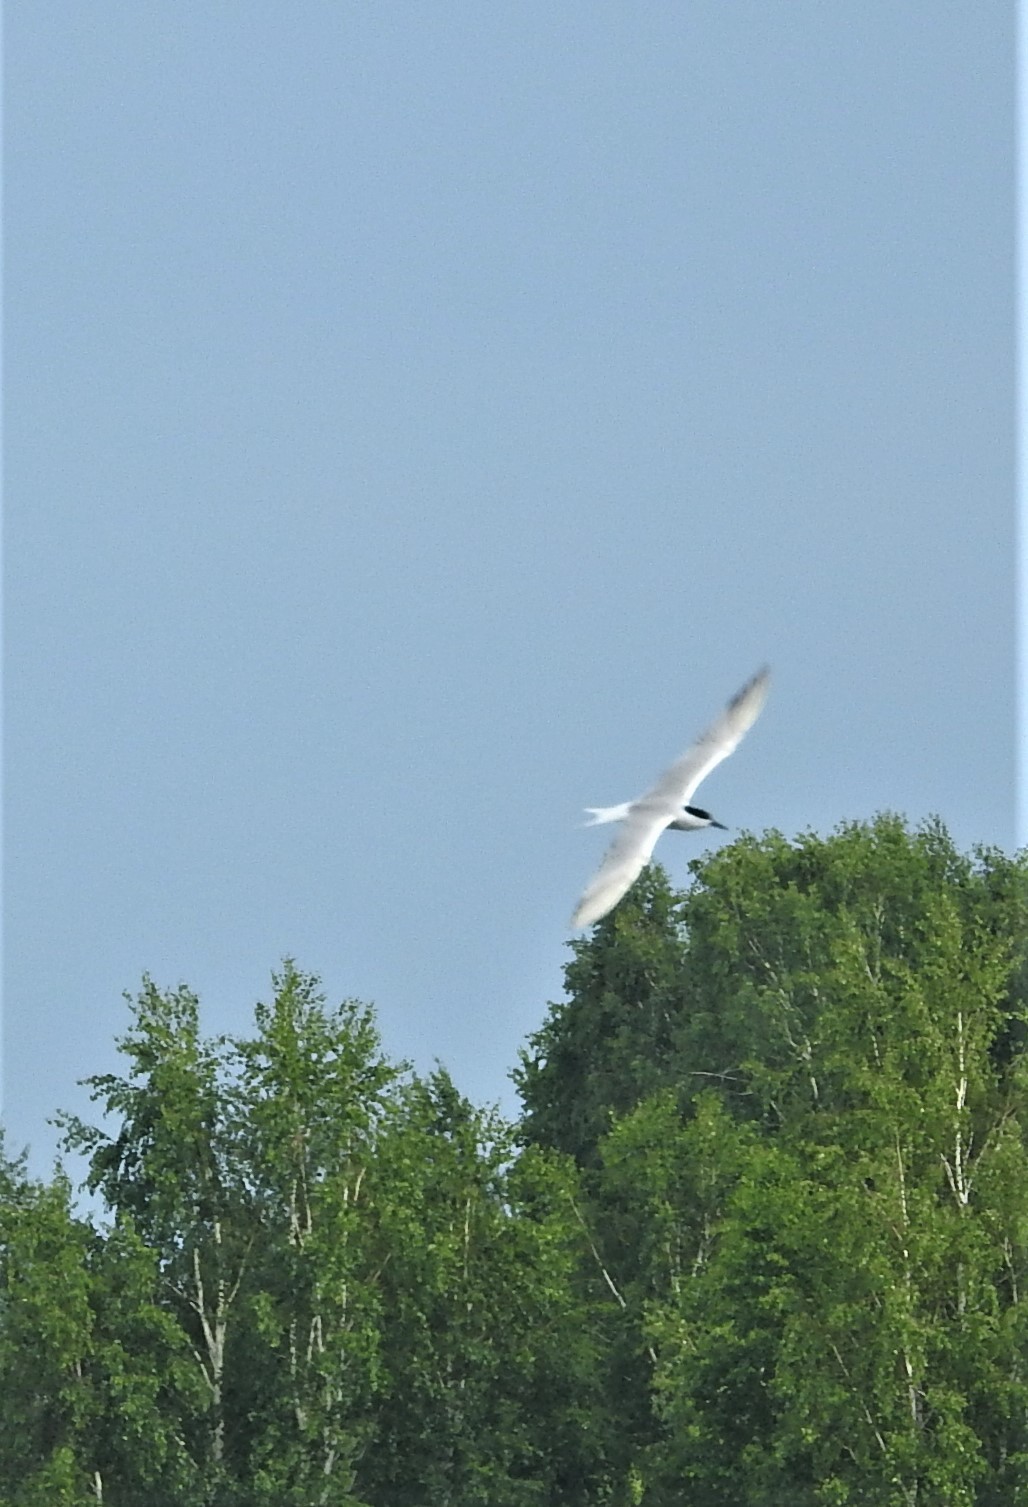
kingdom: Animalia
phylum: Chordata
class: Aves
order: Charadriiformes
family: Laridae
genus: Sterna
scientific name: Sterna hirundo
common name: Common tern
